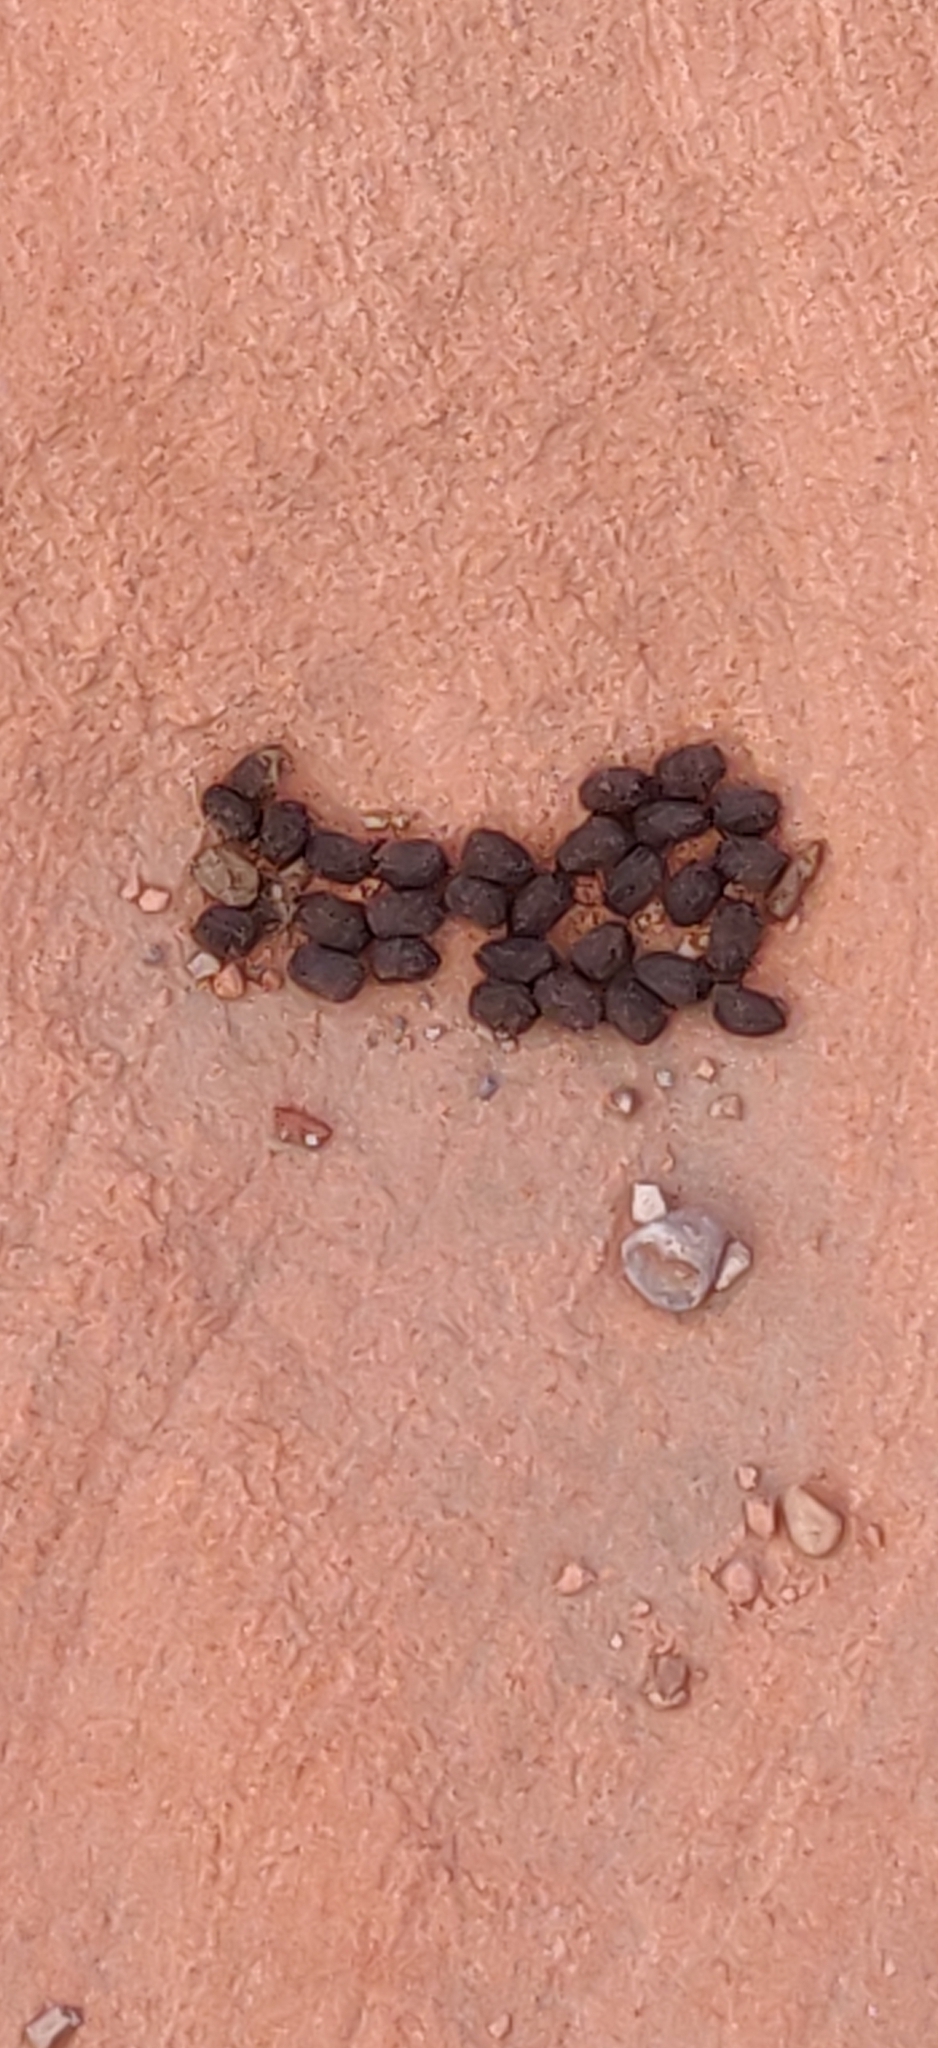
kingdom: Animalia
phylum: Chordata
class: Mammalia
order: Artiodactyla
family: Bovidae
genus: Ovis
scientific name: Ovis canadensis
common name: Bighorn sheep
